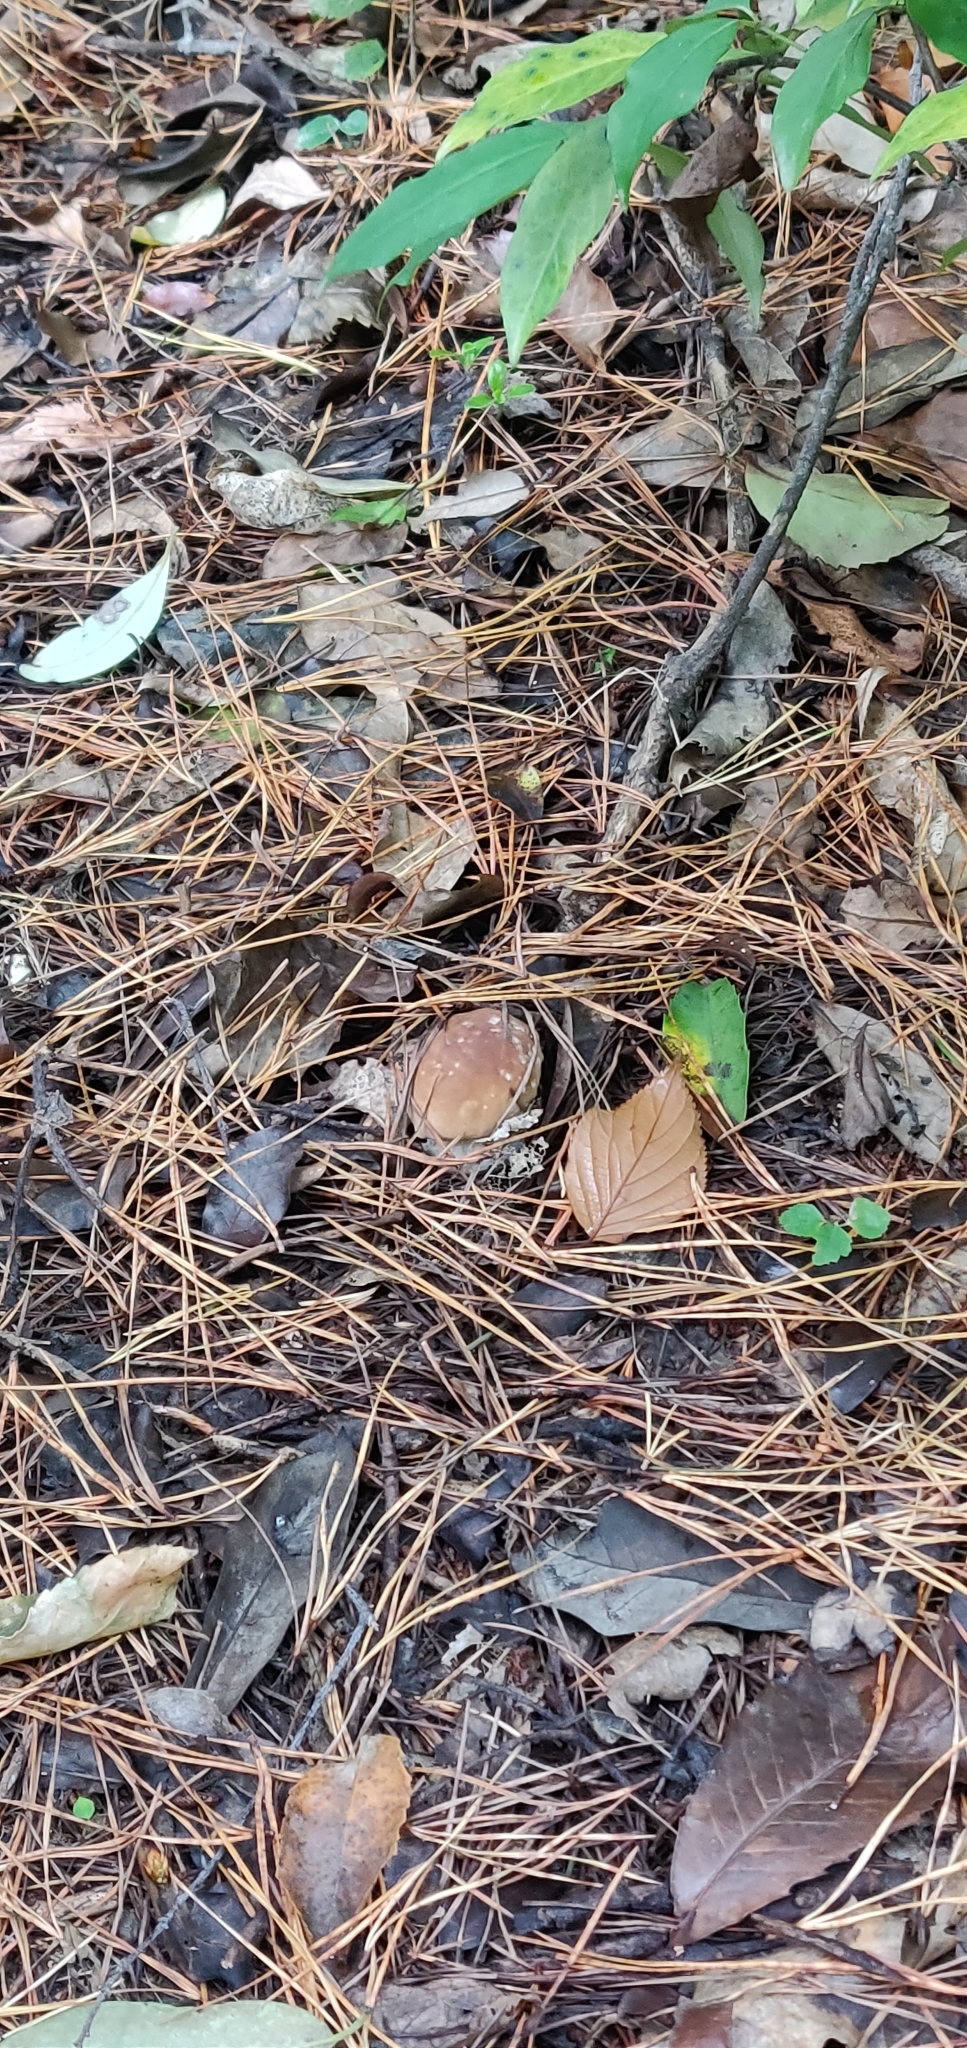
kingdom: Fungi
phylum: Basidiomycota
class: Agaricomycetes
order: Boletales
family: Boletaceae
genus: Boletus
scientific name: Boletus edulis
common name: Cep
